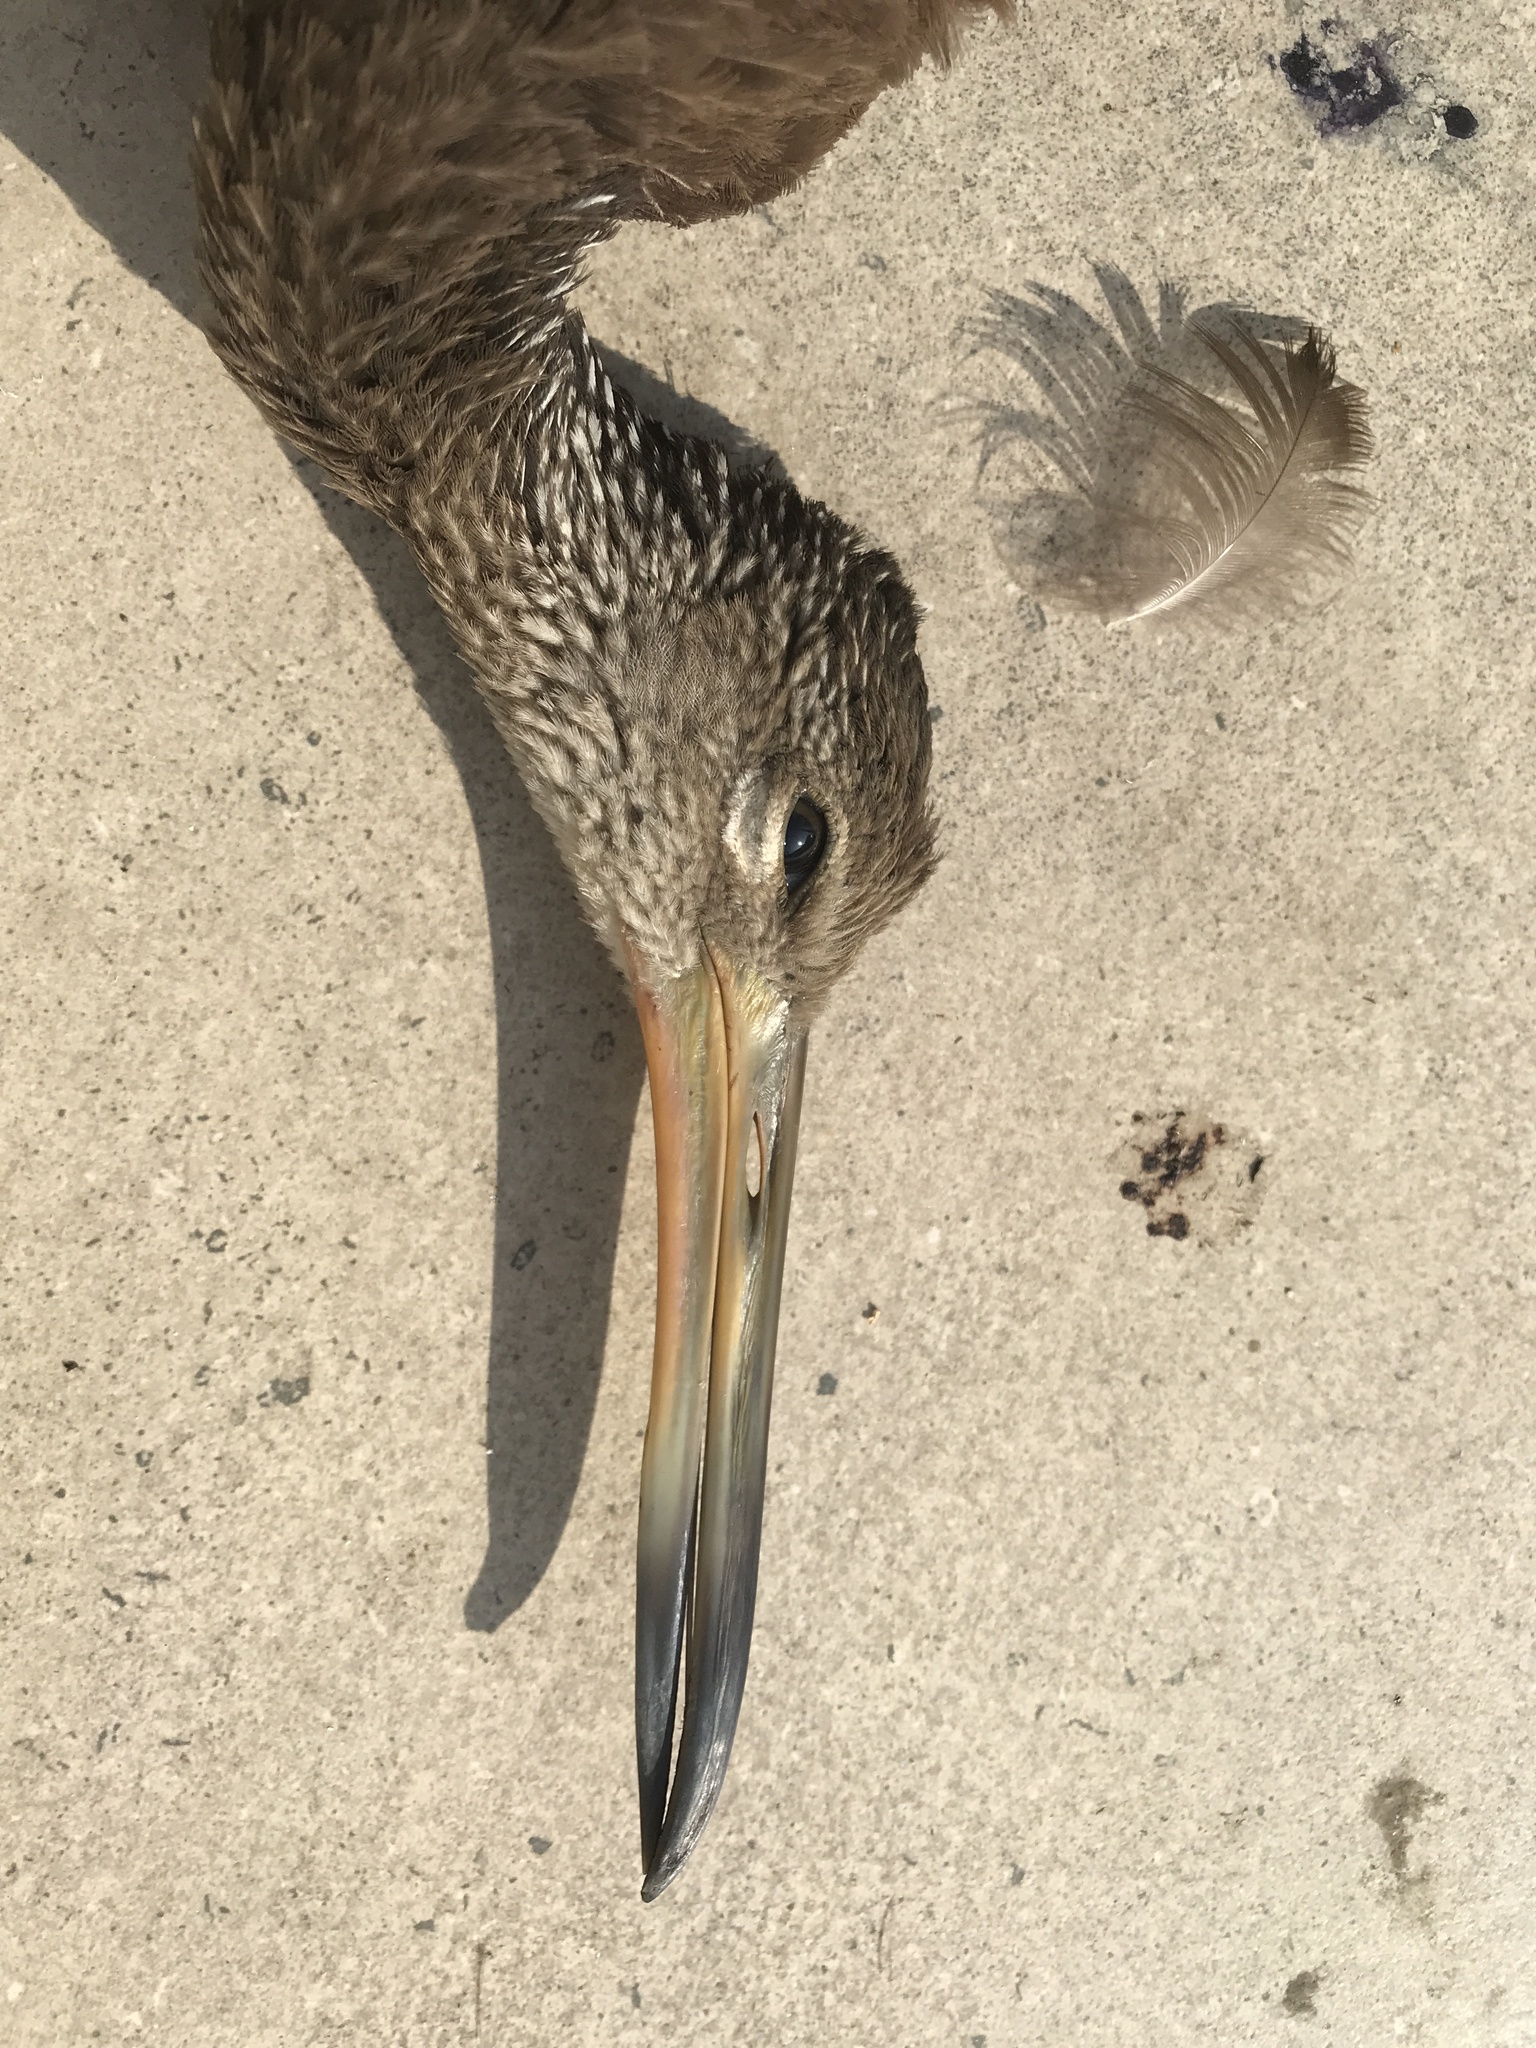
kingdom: Animalia
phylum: Chordata
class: Aves
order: Gruiformes
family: Aramidae
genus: Aramus
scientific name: Aramus guarauna
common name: Limpkin
